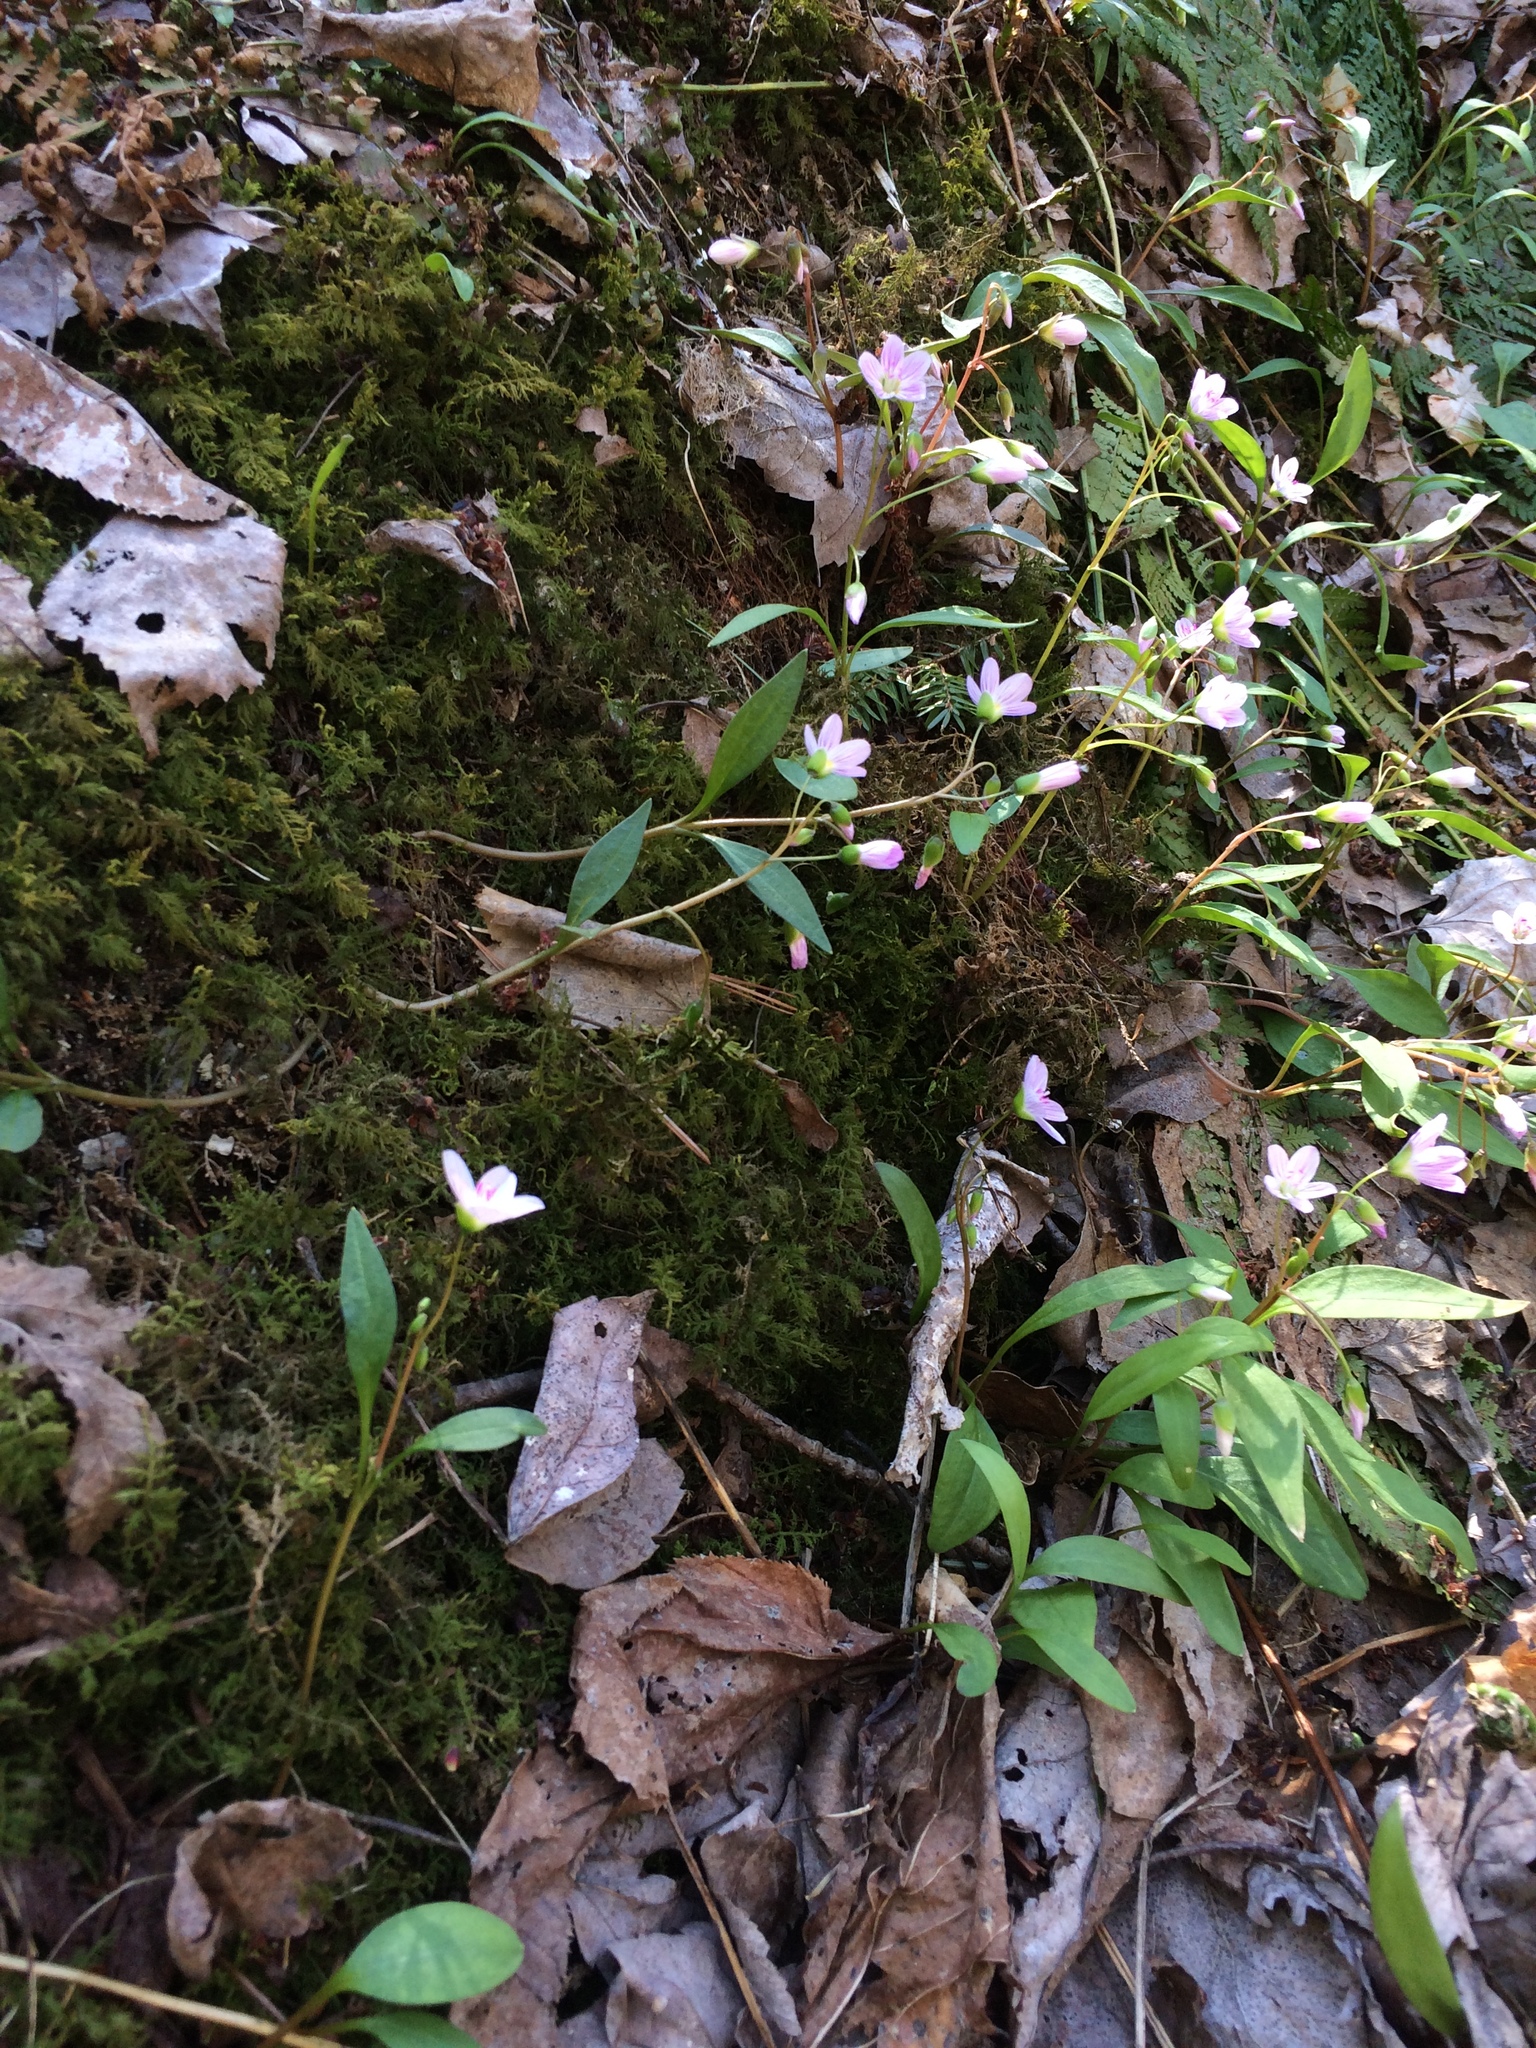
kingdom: Plantae
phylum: Tracheophyta
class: Magnoliopsida
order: Caryophyllales
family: Montiaceae
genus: Claytonia
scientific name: Claytonia caroliniana
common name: Carolina spring beauty
